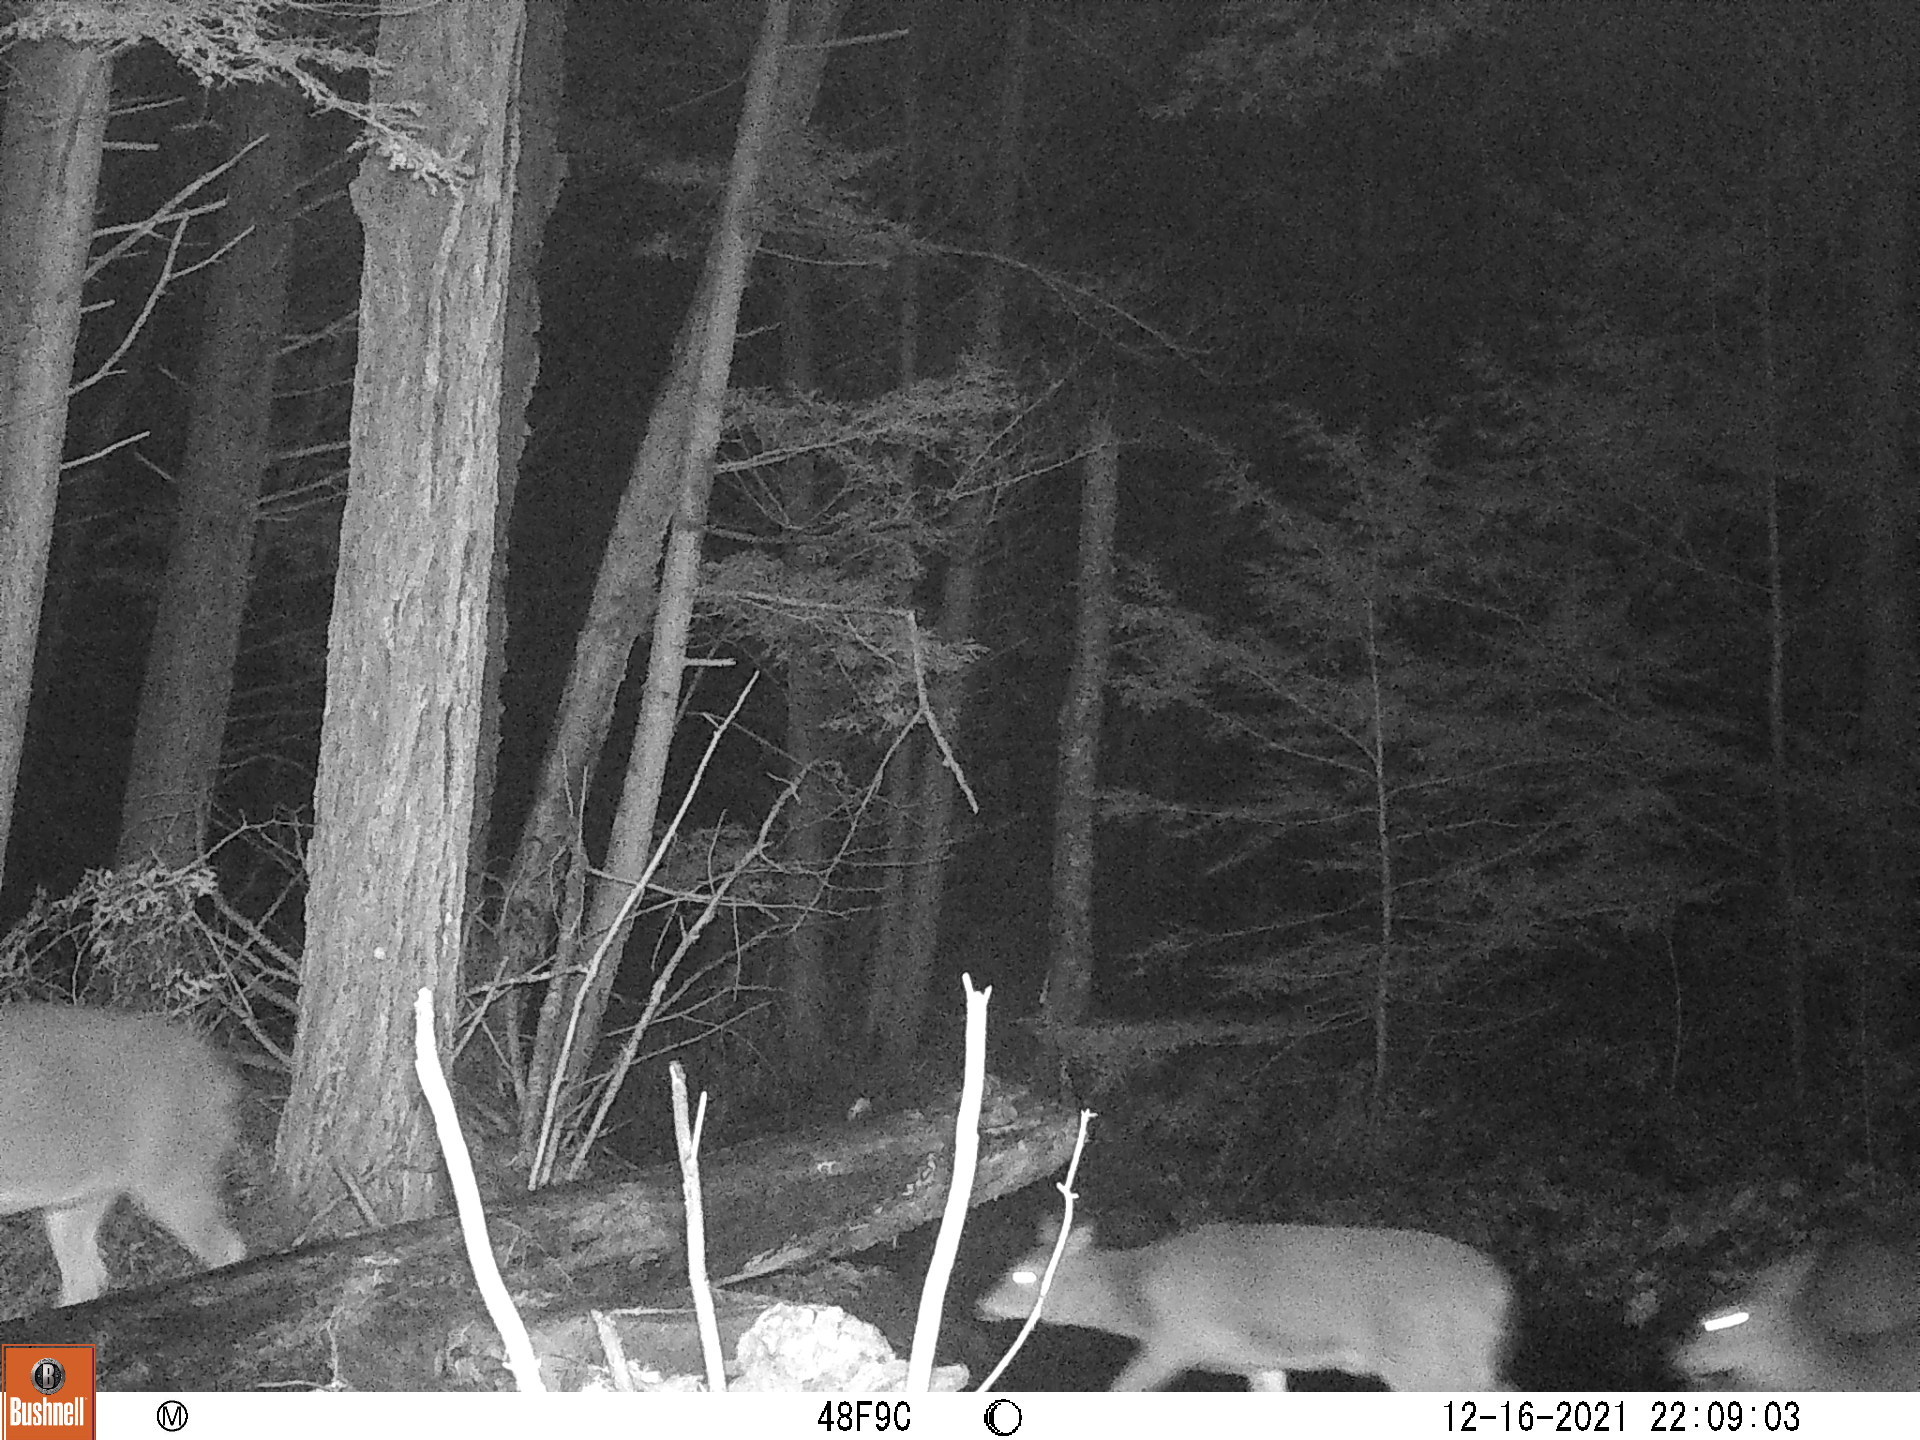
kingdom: Animalia
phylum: Chordata
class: Mammalia
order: Artiodactyla
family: Cervidae
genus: Odocoileus
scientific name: Odocoileus virginianus
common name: White-tailed deer
